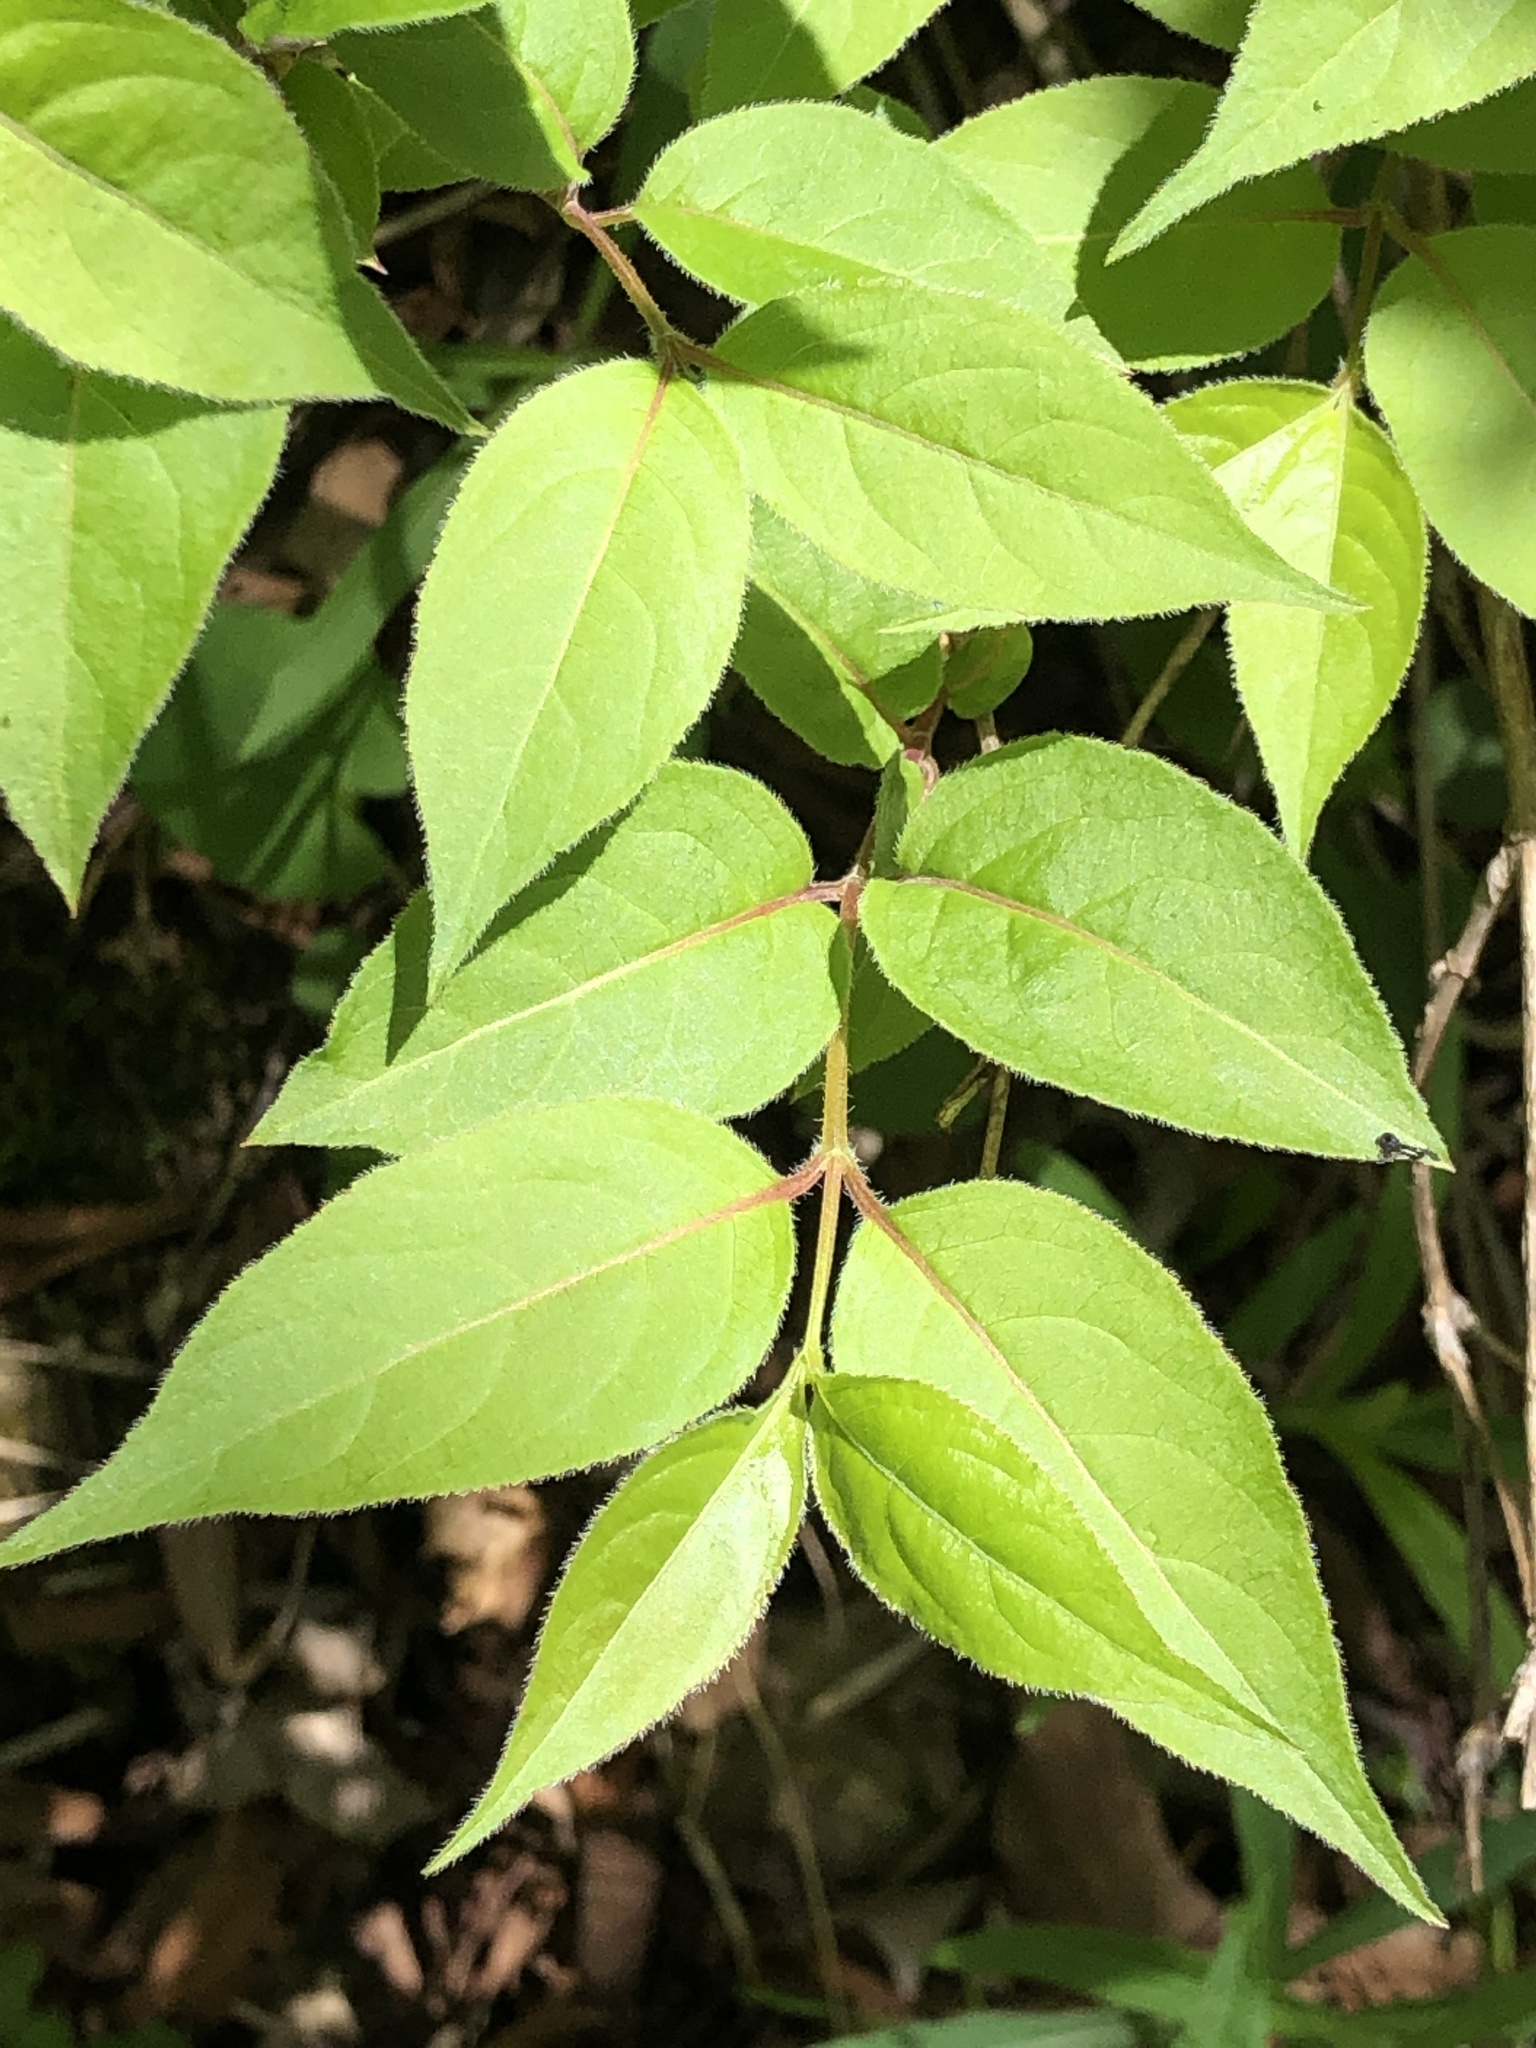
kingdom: Plantae
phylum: Tracheophyta
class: Magnoliopsida
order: Dipsacales
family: Caprifoliaceae
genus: Diervilla
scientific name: Diervilla lonicera
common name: Bush-honeysuckle
